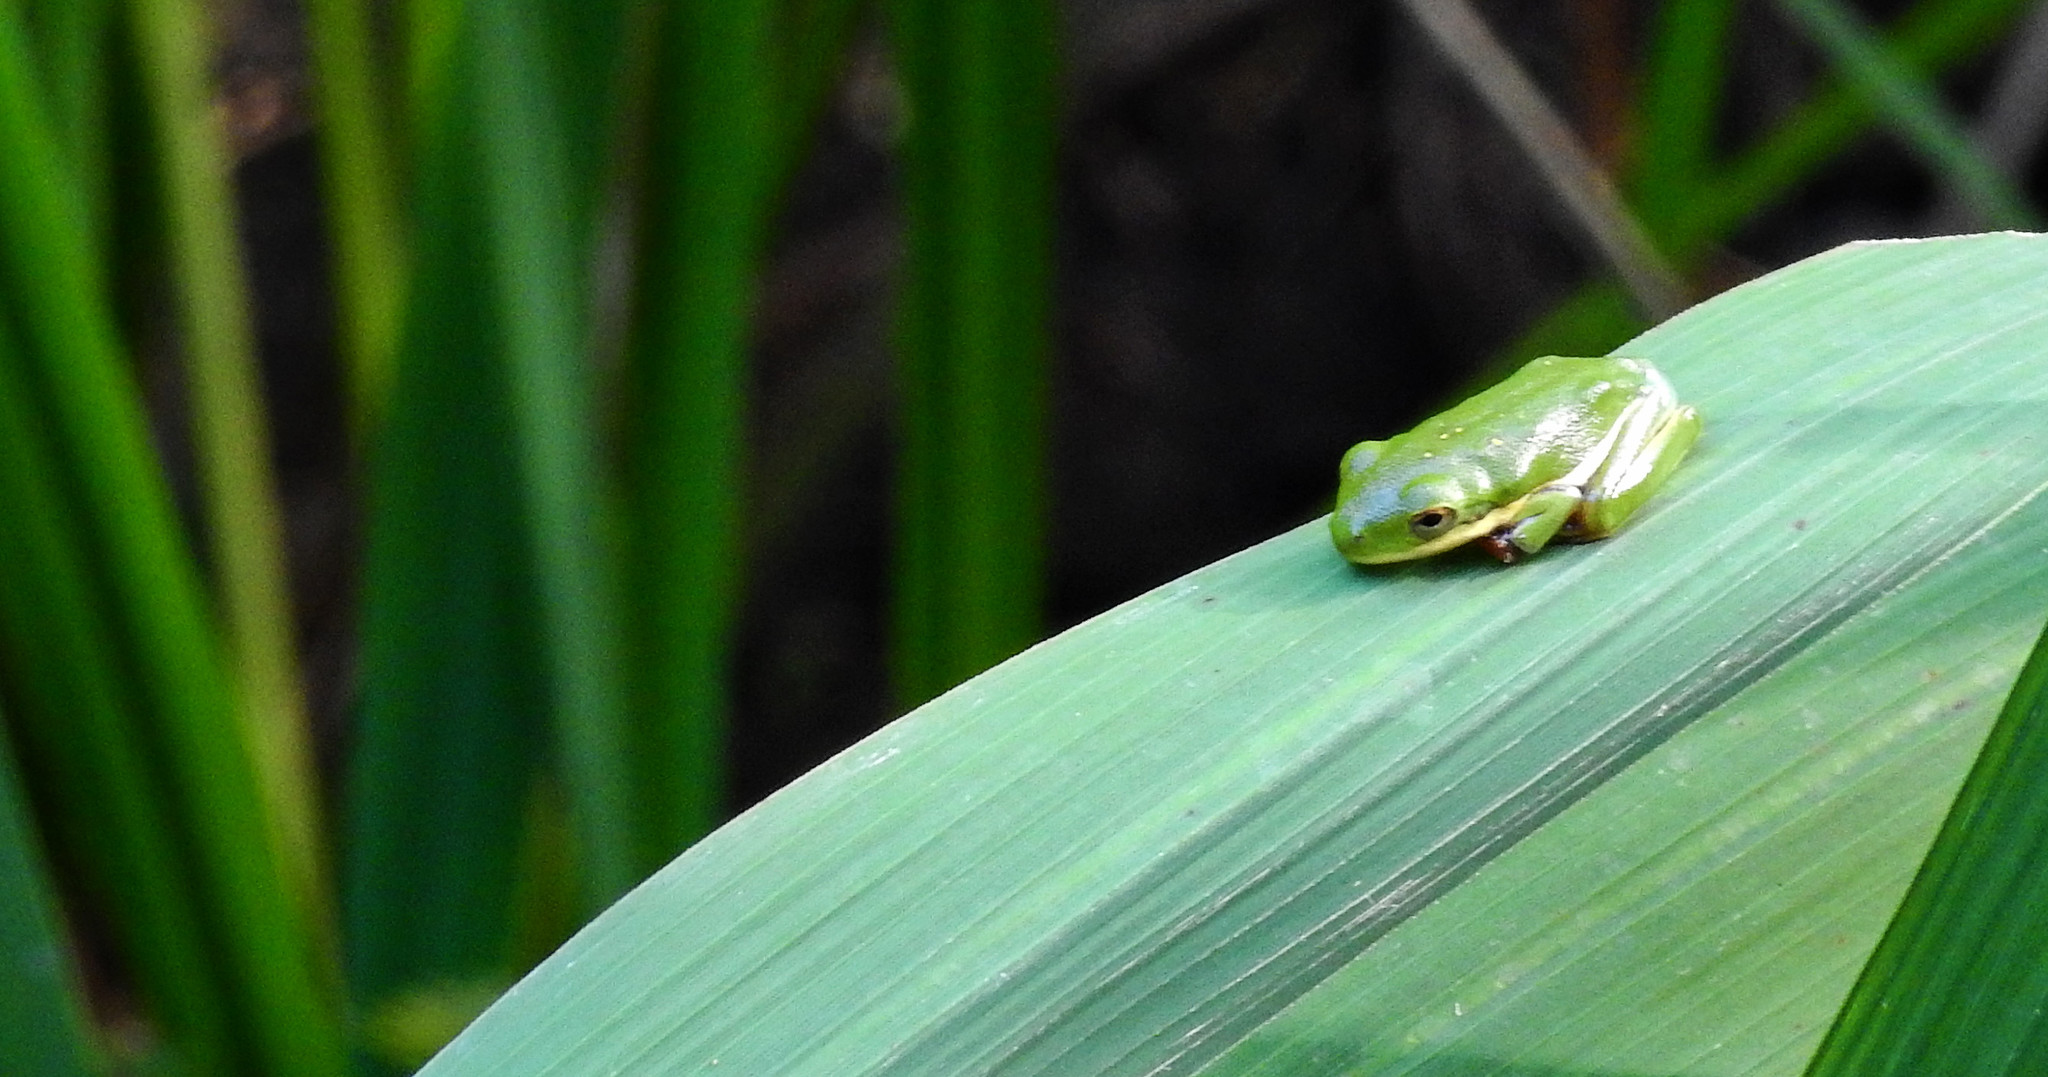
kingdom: Animalia
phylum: Chordata
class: Amphibia
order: Anura
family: Hylidae
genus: Dryophytes
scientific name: Dryophytes cinereus
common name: Green treefrog
